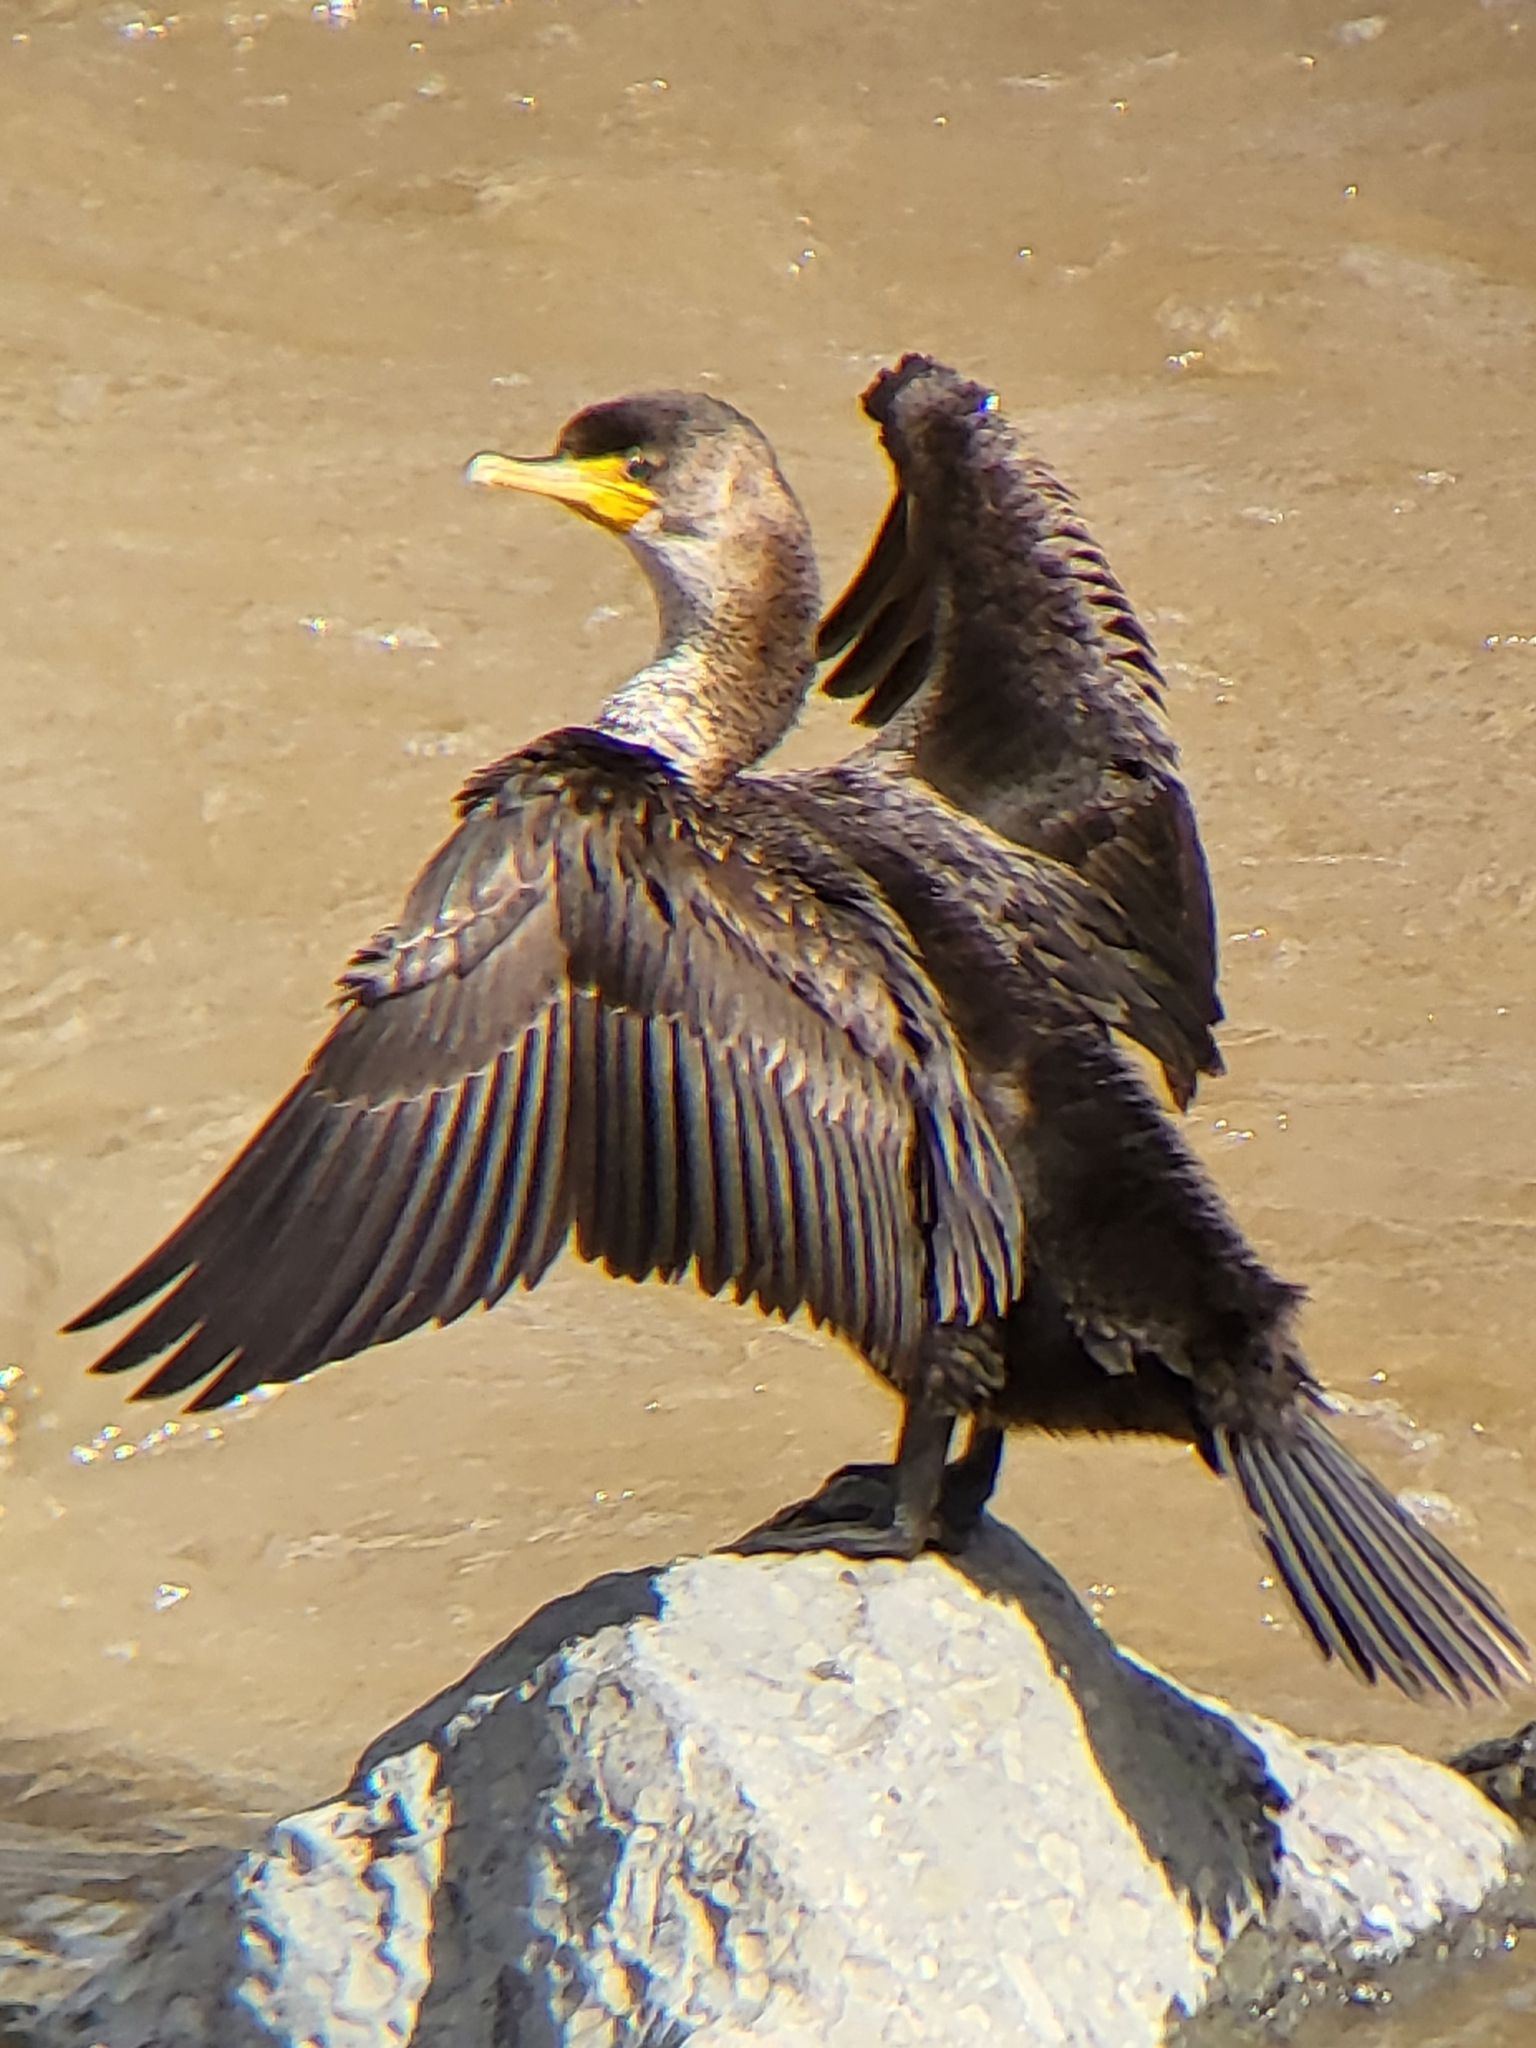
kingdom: Animalia
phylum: Chordata
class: Aves
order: Suliformes
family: Phalacrocoracidae
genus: Phalacrocorax
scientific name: Phalacrocorax auritus
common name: Double-crested cormorant
